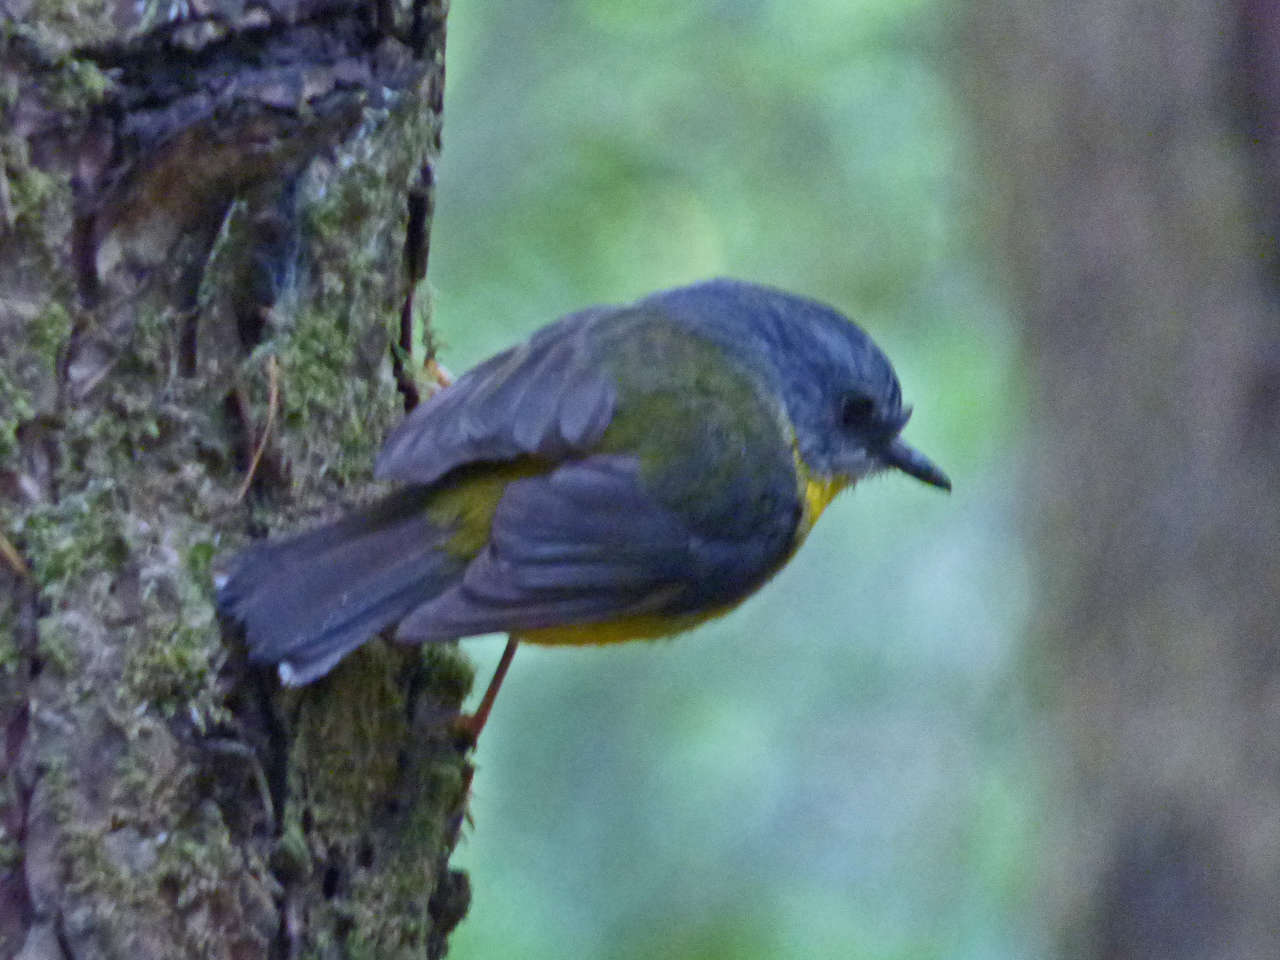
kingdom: Animalia
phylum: Chordata
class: Aves
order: Passeriformes
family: Petroicidae
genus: Eopsaltria
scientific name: Eopsaltria australis
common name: Eastern yellow robin
